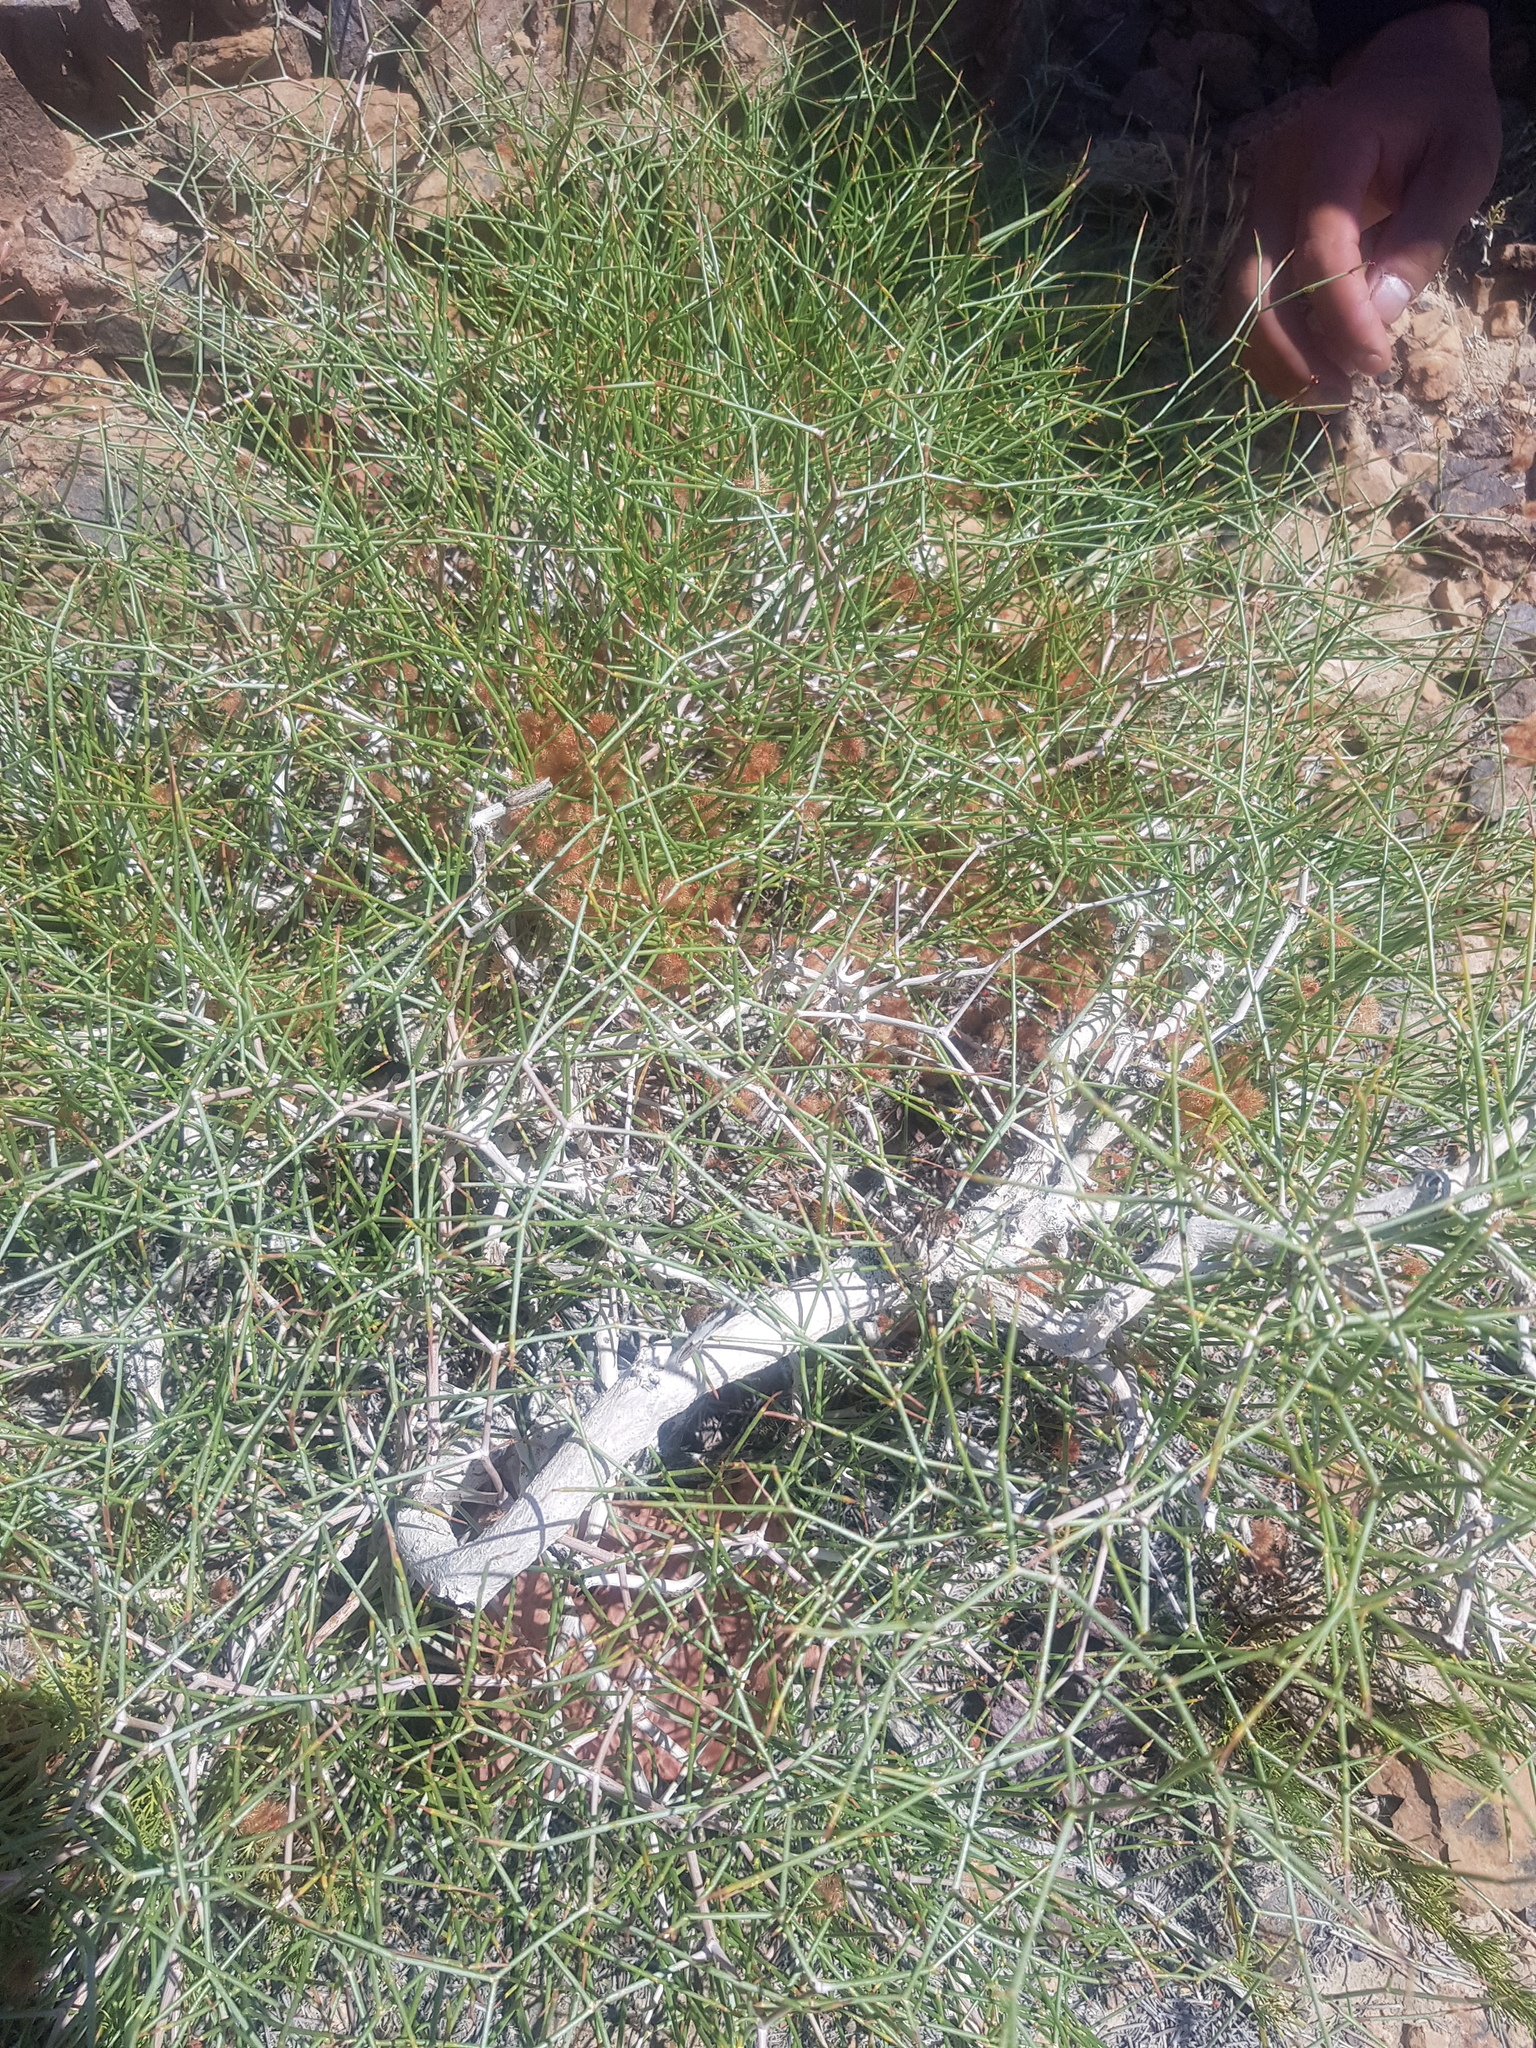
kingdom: Plantae
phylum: Tracheophyta
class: Magnoliopsida
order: Caryophyllales
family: Polygonaceae
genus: Calligonum
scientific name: Calligonum mongolicum
